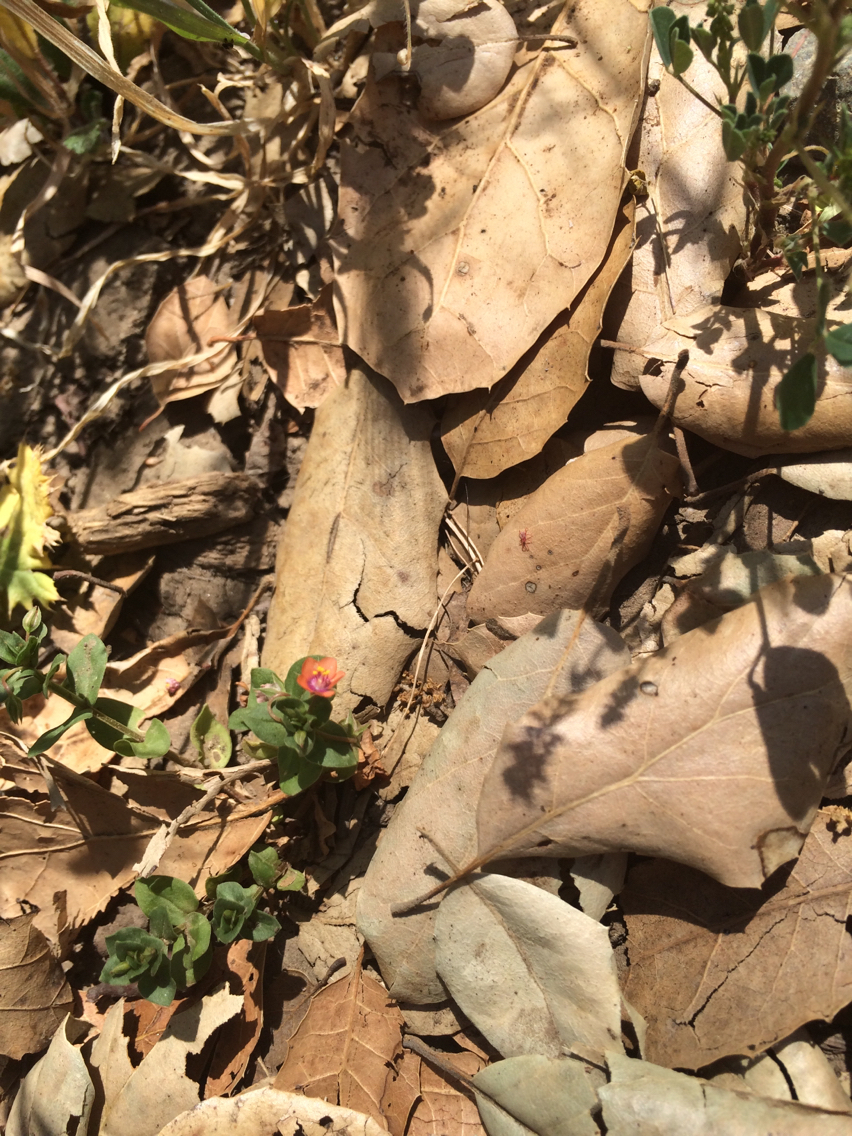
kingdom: Plantae
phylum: Tracheophyta
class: Magnoliopsida
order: Ericales
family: Primulaceae
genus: Lysimachia
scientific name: Lysimachia arvensis
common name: Scarlet pimpernel
